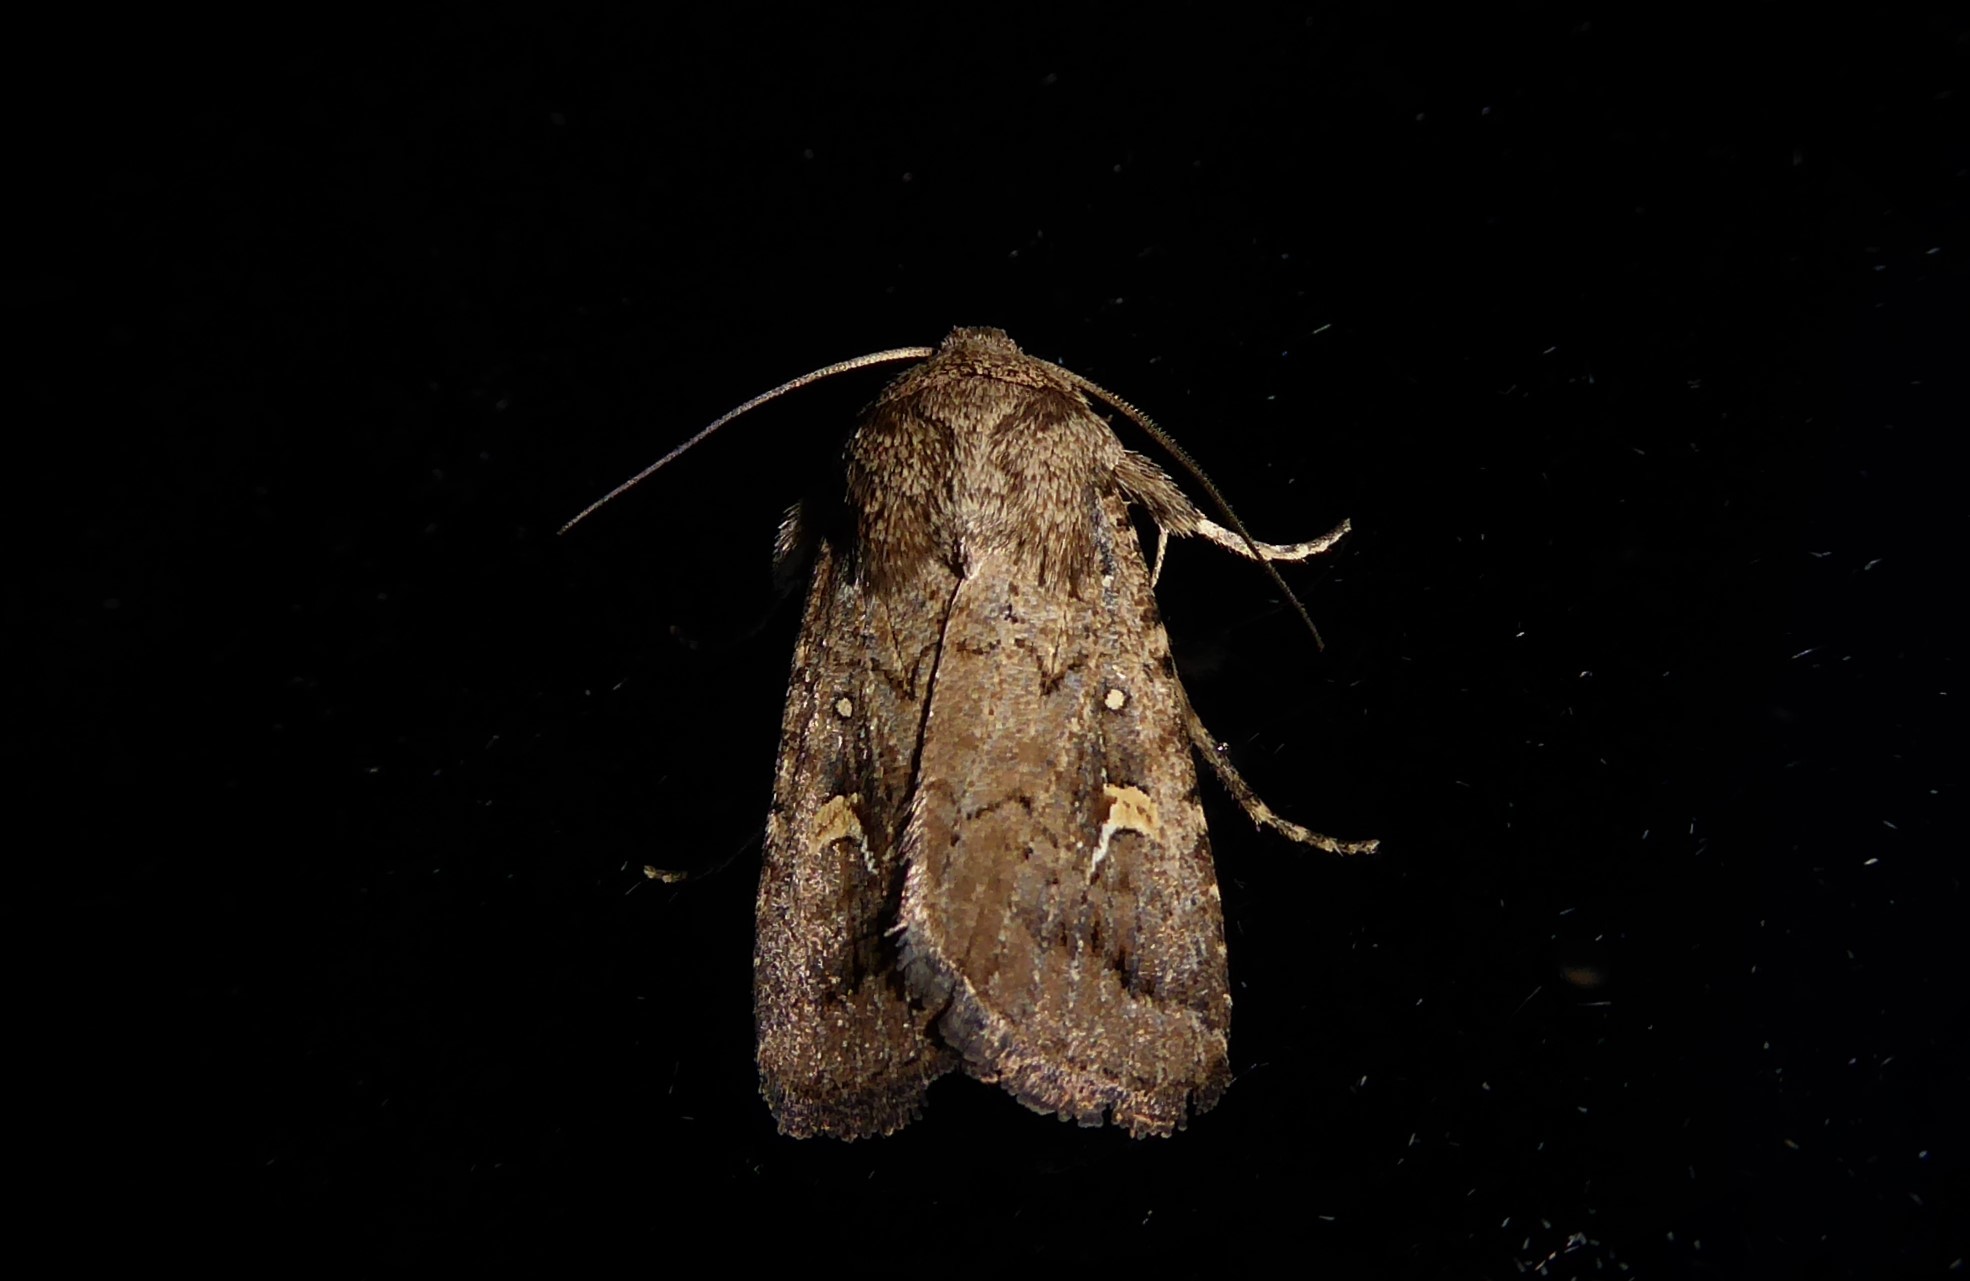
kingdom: Animalia
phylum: Arthropoda
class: Insecta
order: Lepidoptera
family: Noctuidae
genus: Proteuxoa
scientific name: Proteuxoa tetronycha
